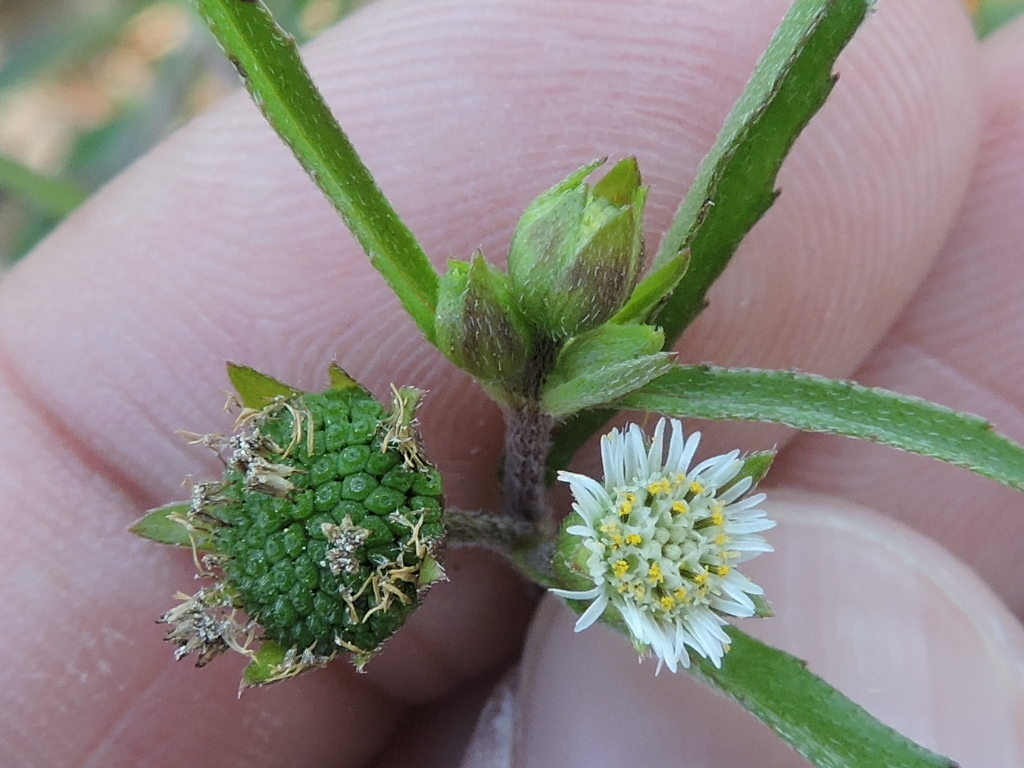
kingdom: Plantae
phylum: Tracheophyta
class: Magnoliopsida
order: Asterales
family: Asteraceae
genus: Eclipta
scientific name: Eclipta prostrata
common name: False daisy
